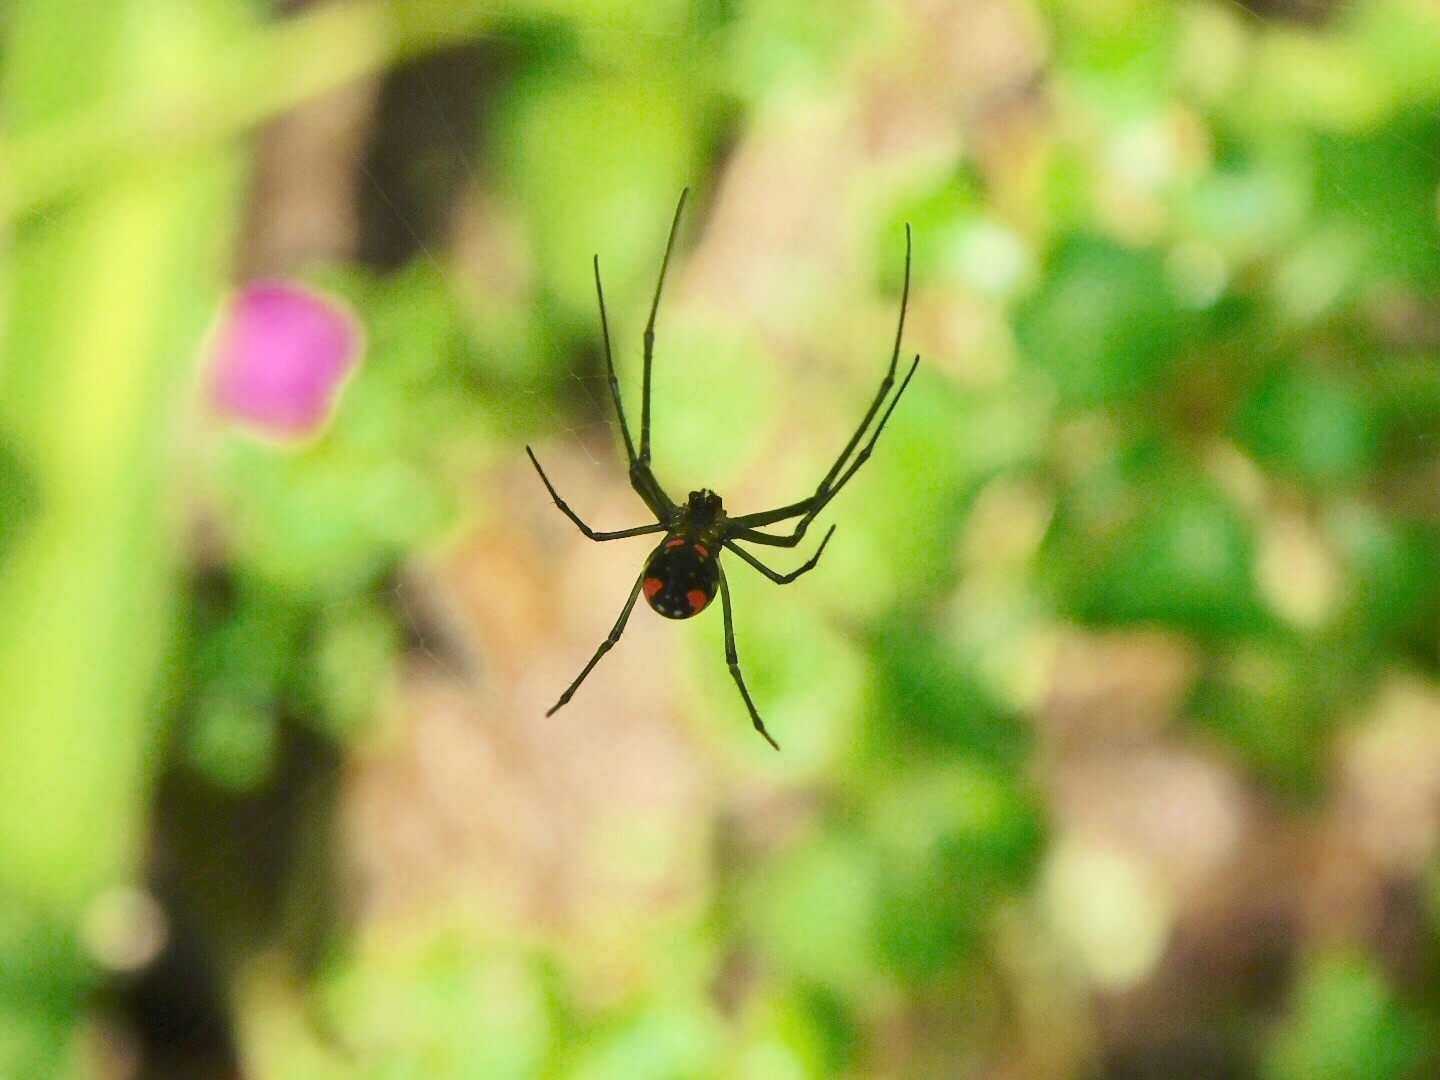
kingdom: Animalia
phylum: Arthropoda
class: Arachnida
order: Araneae
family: Tetragnathidae
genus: Leucauge
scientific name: Leucauge argyrobapta
